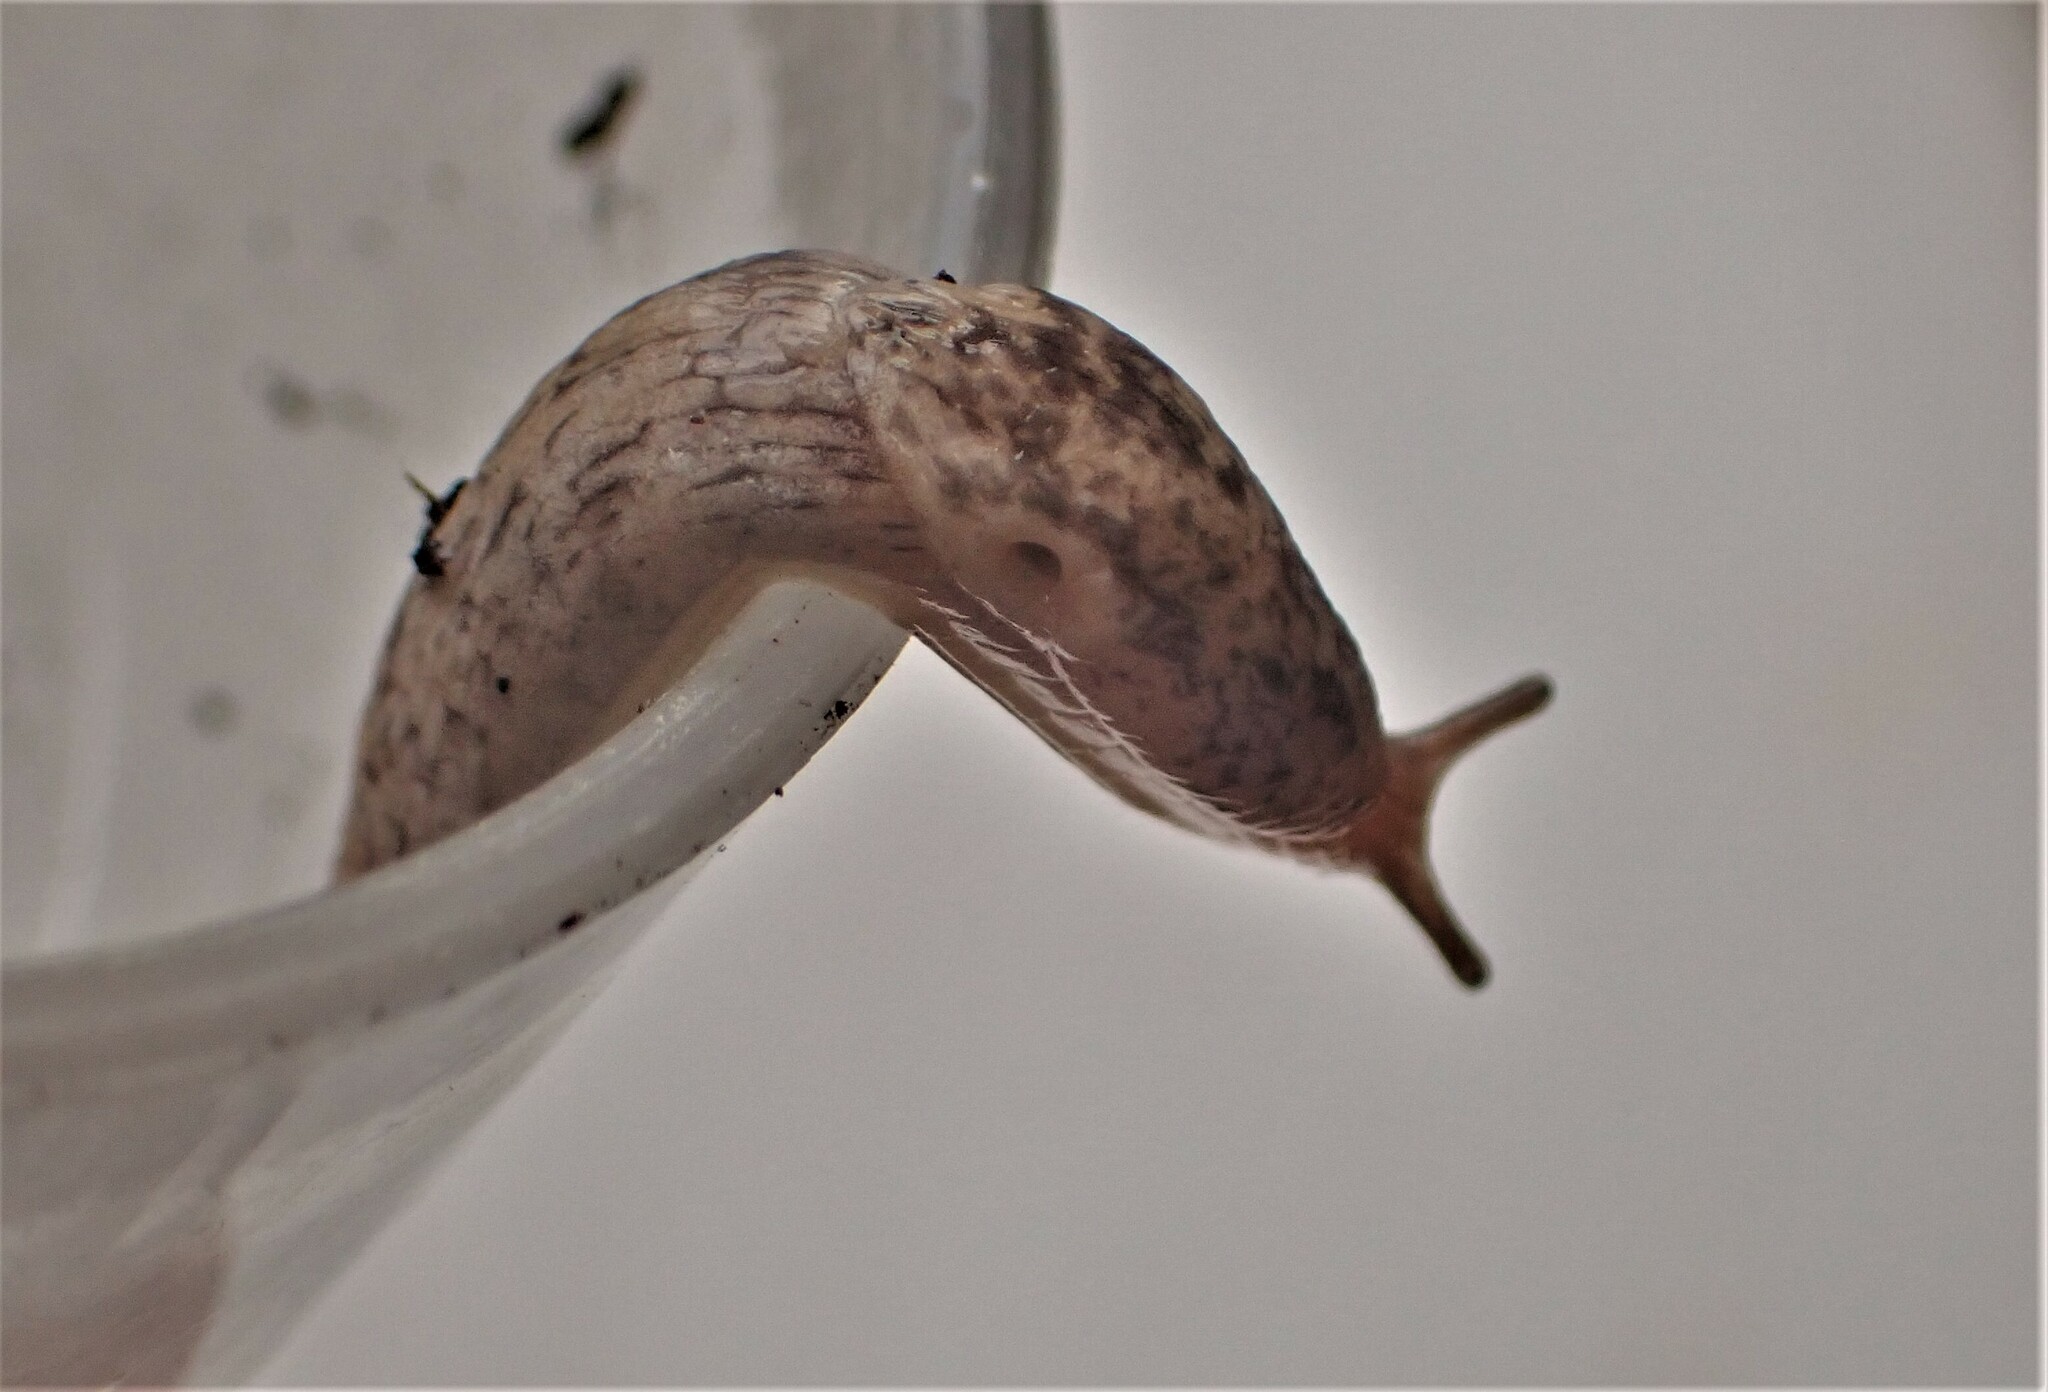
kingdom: Animalia
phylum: Mollusca
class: Gastropoda
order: Stylommatophora
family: Agriolimacidae
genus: Deroceras
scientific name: Deroceras reticulatum
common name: Gray field slug
